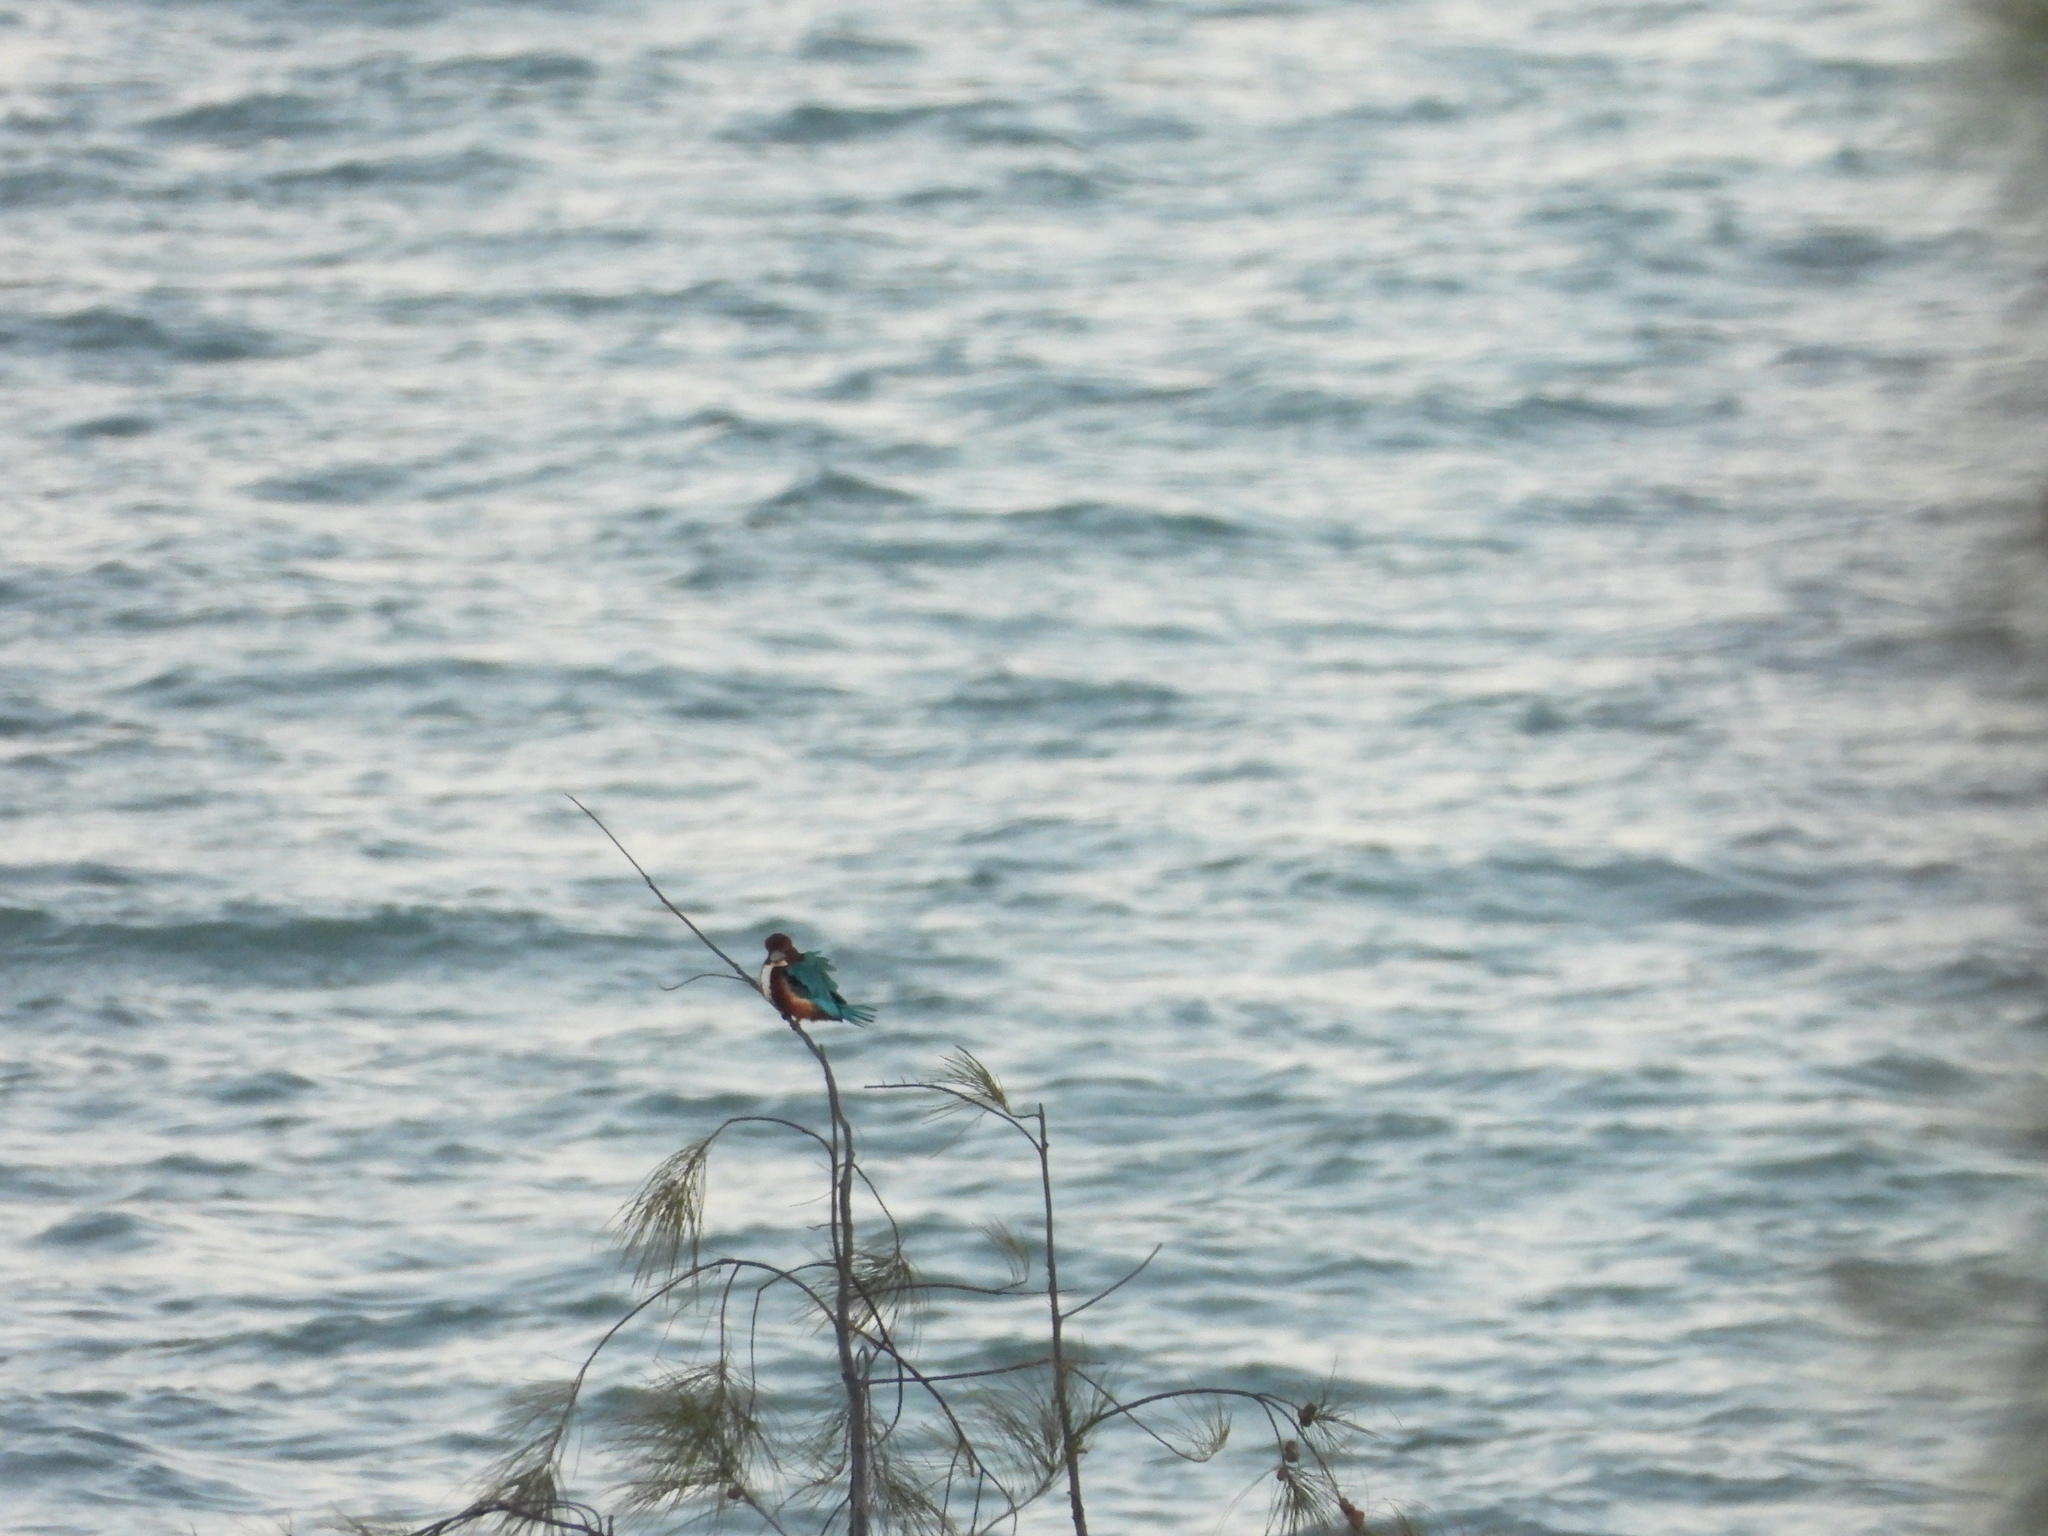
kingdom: Animalia
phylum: Chordata
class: Aves
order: Coraciiformes
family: Alcedinidae
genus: Halcyon
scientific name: Halcyon smyrnensis
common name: White-throated kingfisher
